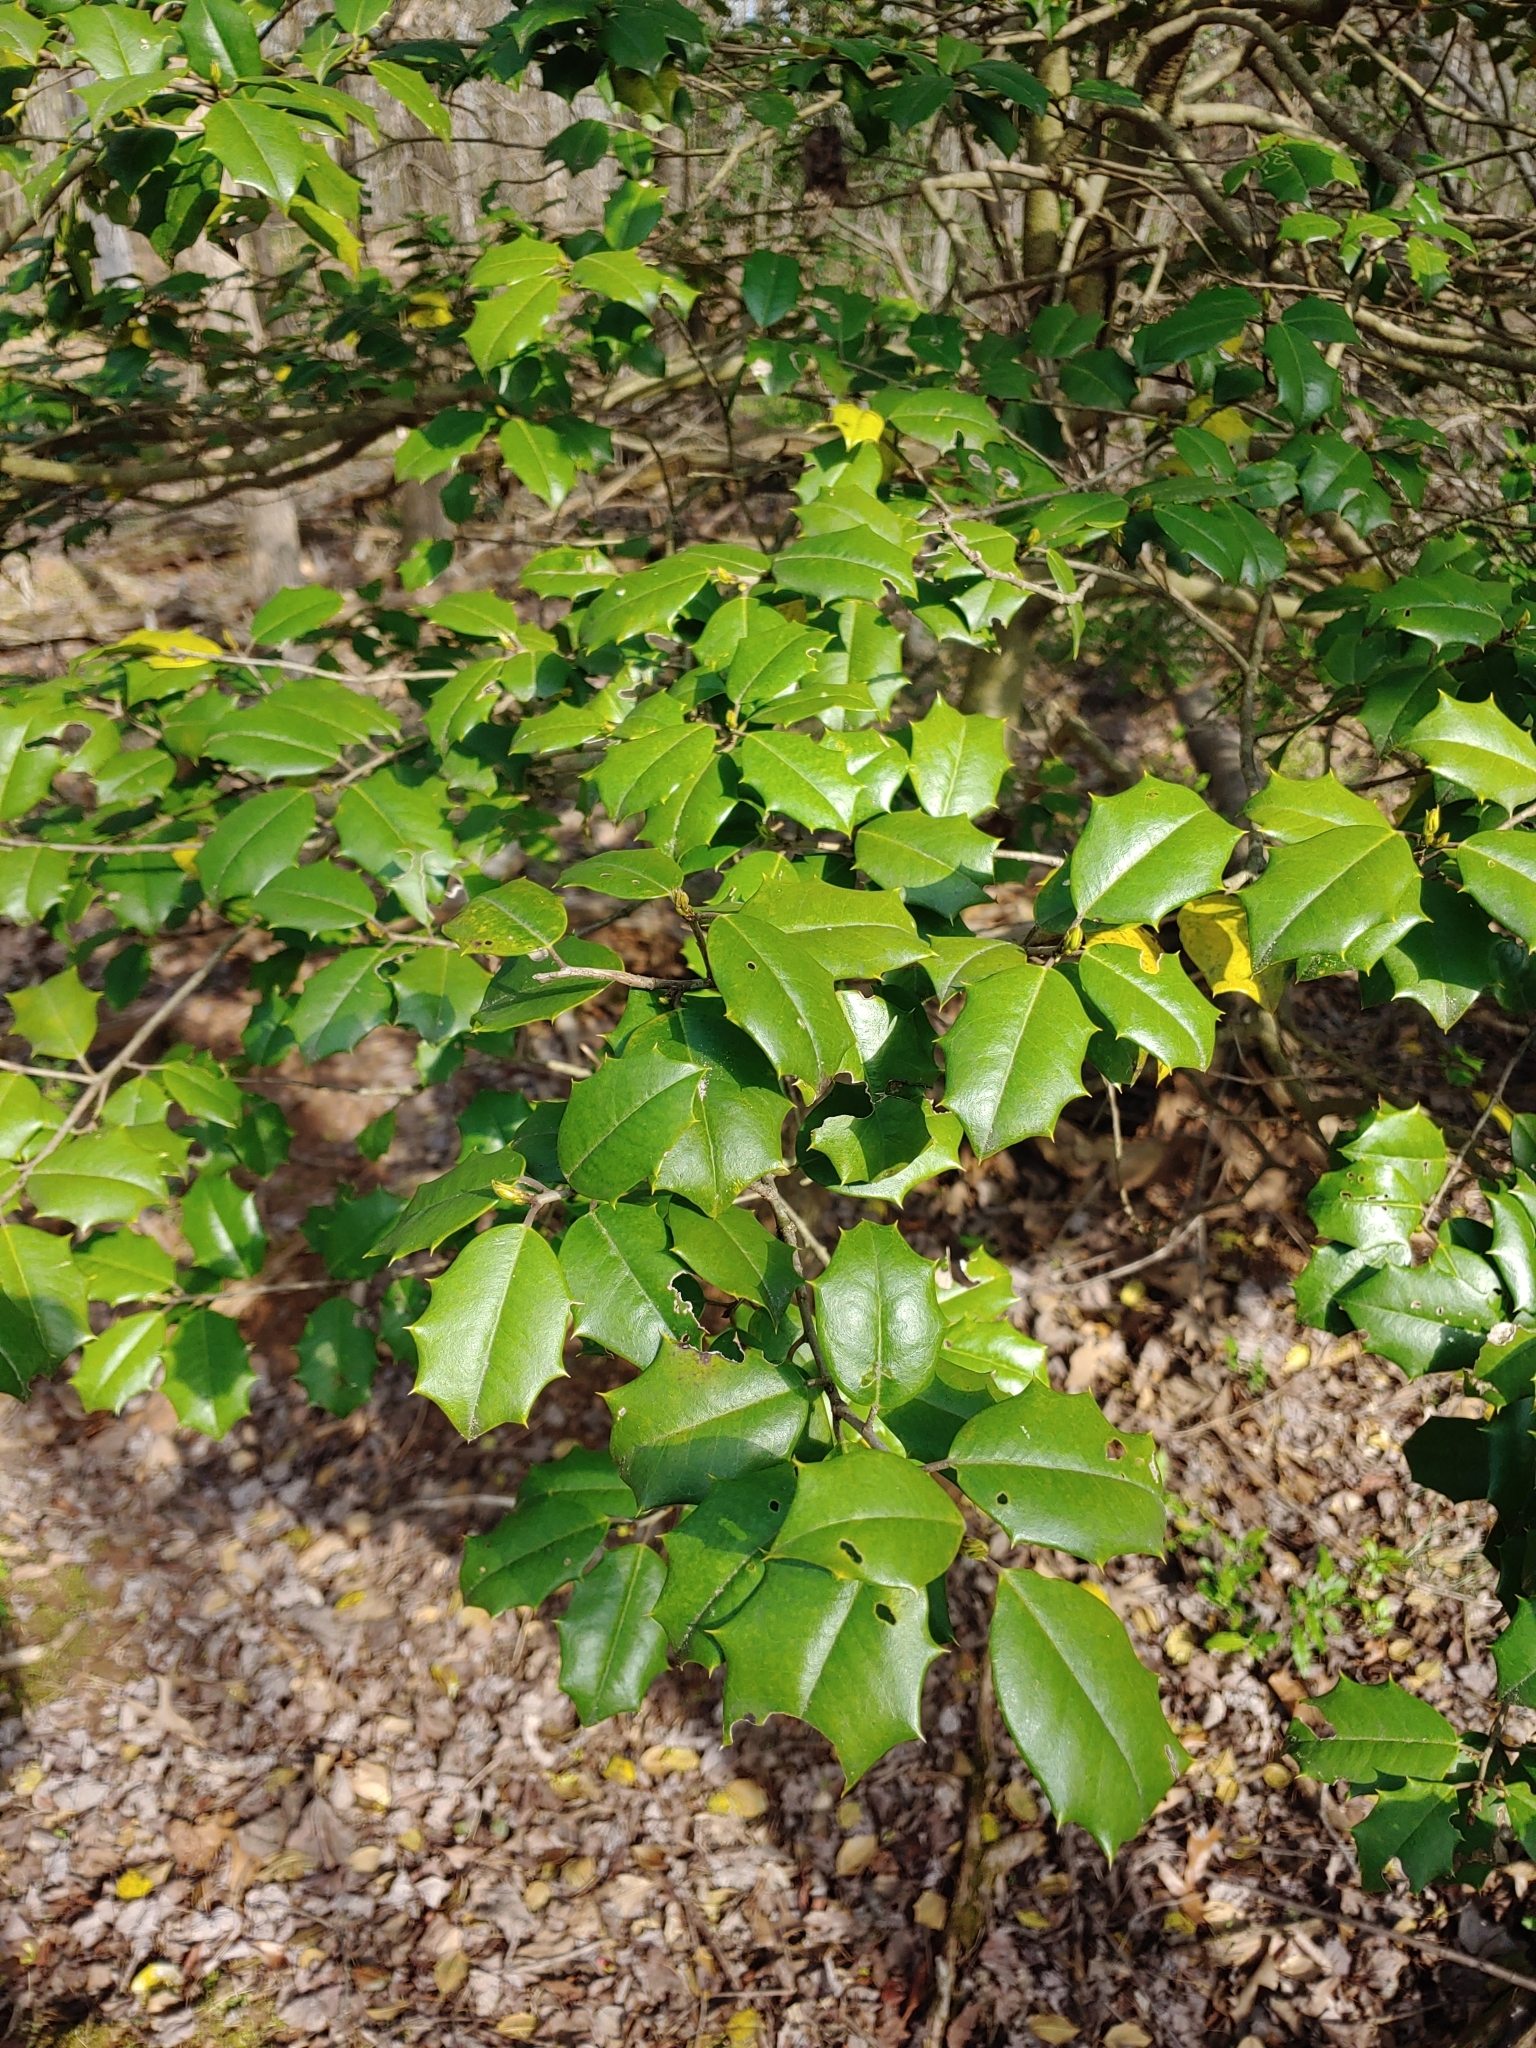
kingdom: Plantae
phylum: Tracheophyta
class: Magnoliopsida
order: Aquifoliales
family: Aquifoliaceae
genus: Ilex
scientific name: Ilex opaca
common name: American holly
